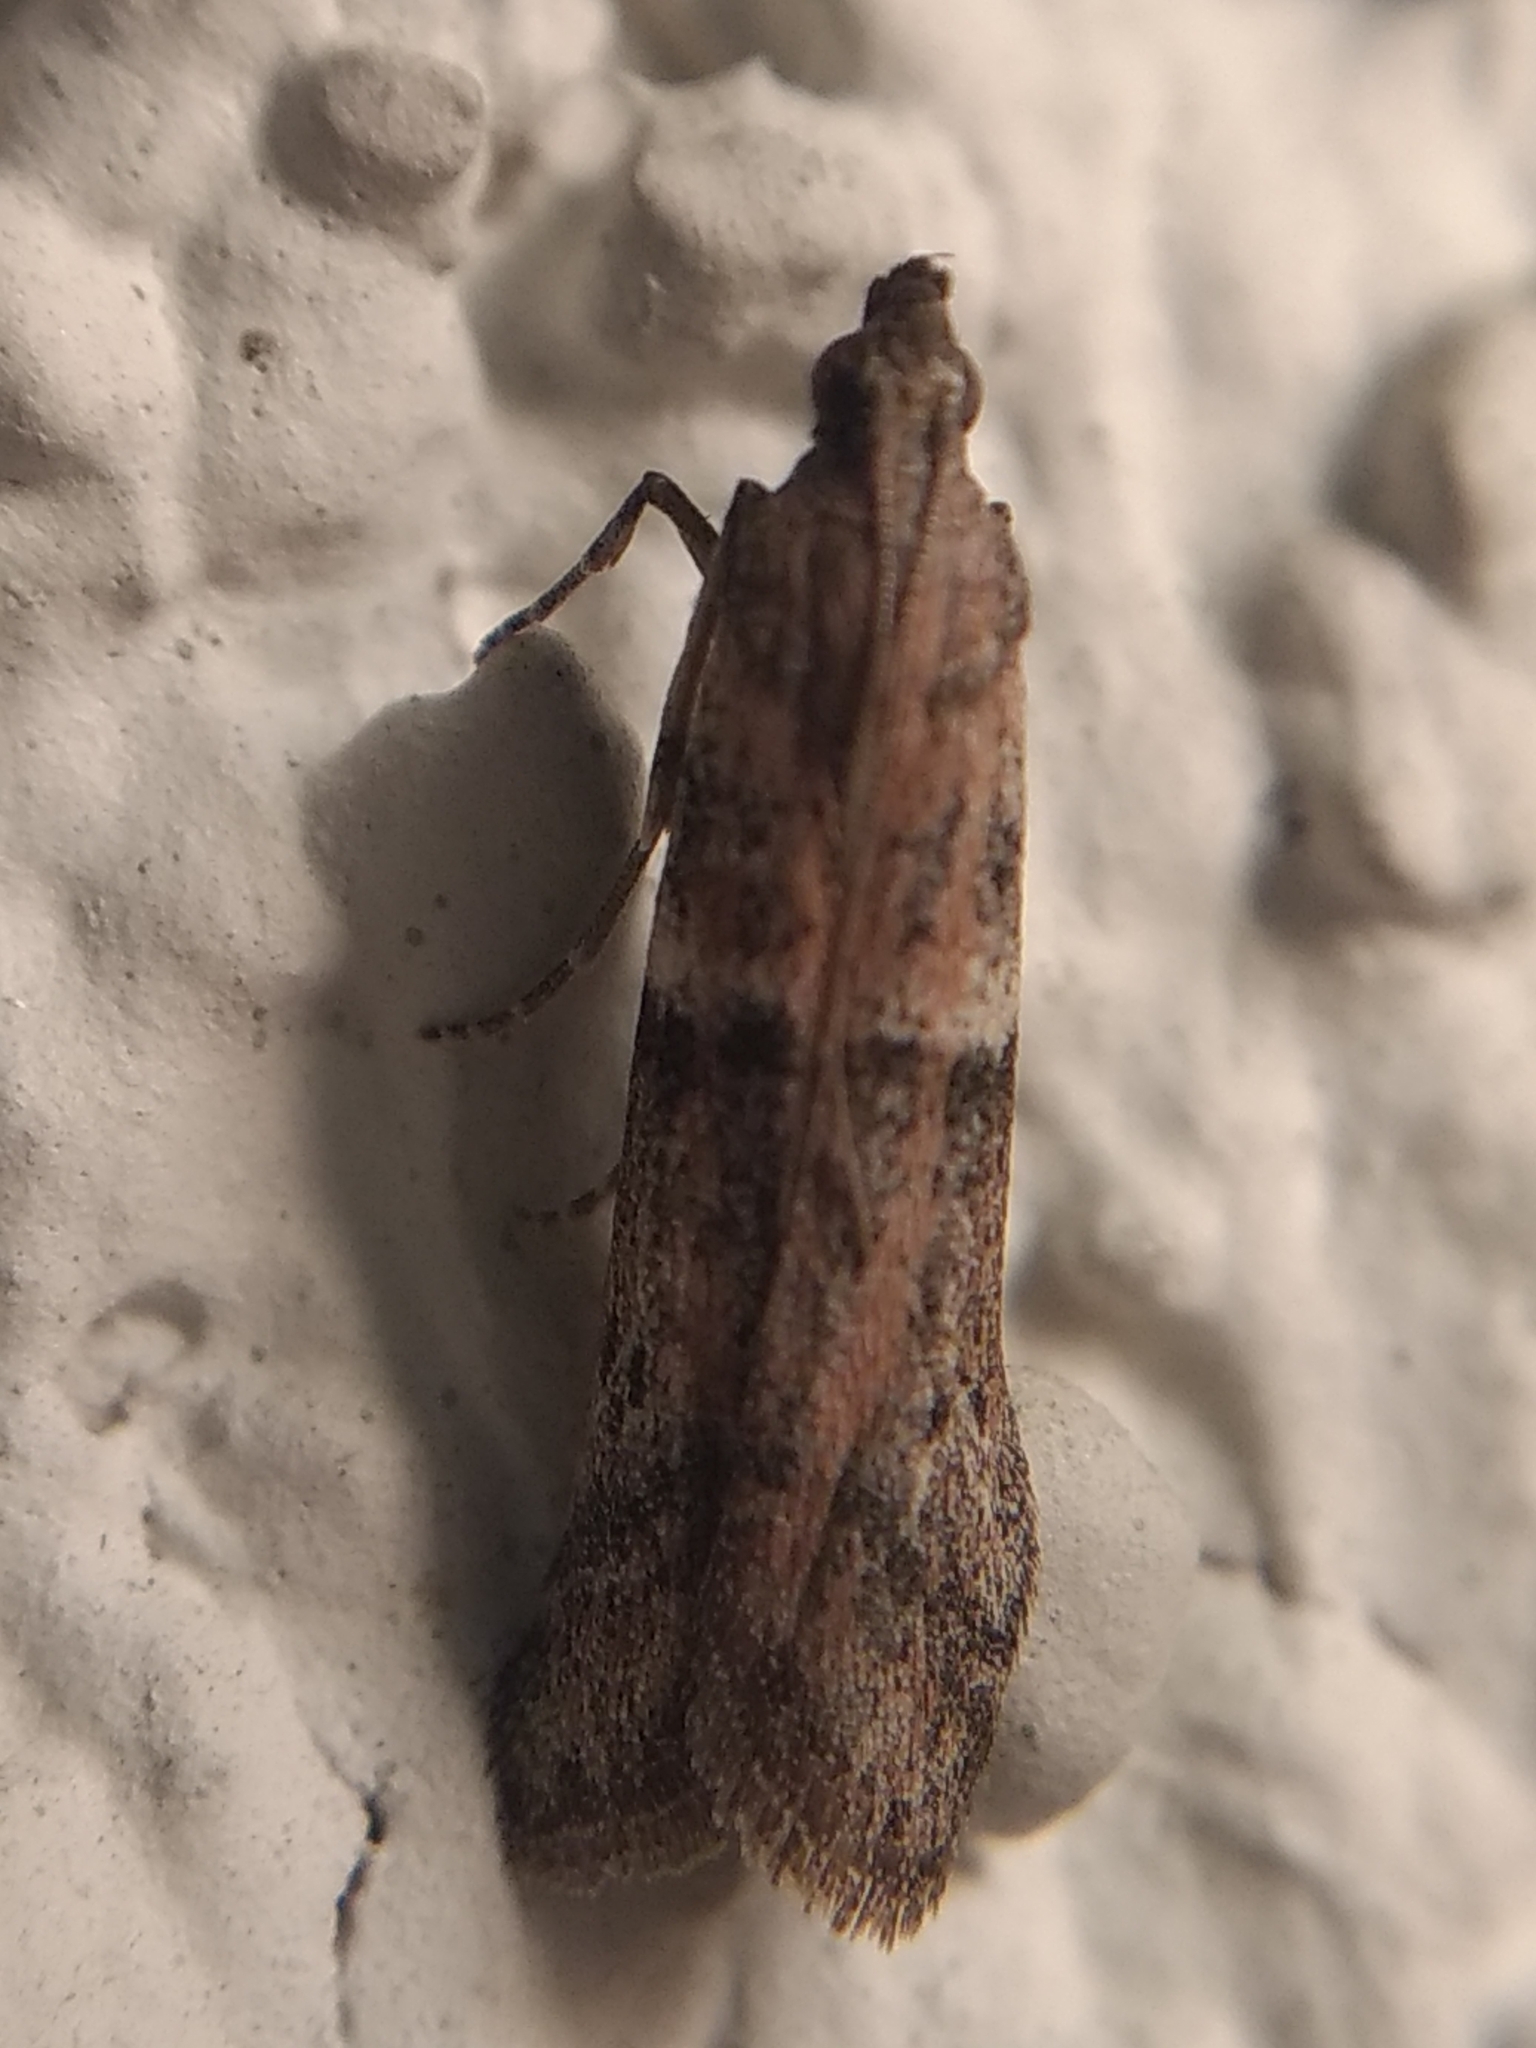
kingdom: Animalia
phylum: Arthropoda
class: Insecta
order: Lepidoptera
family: Pyralidae
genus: Ephestiodes
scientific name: Ephestiodes gilvescentella
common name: Moth
